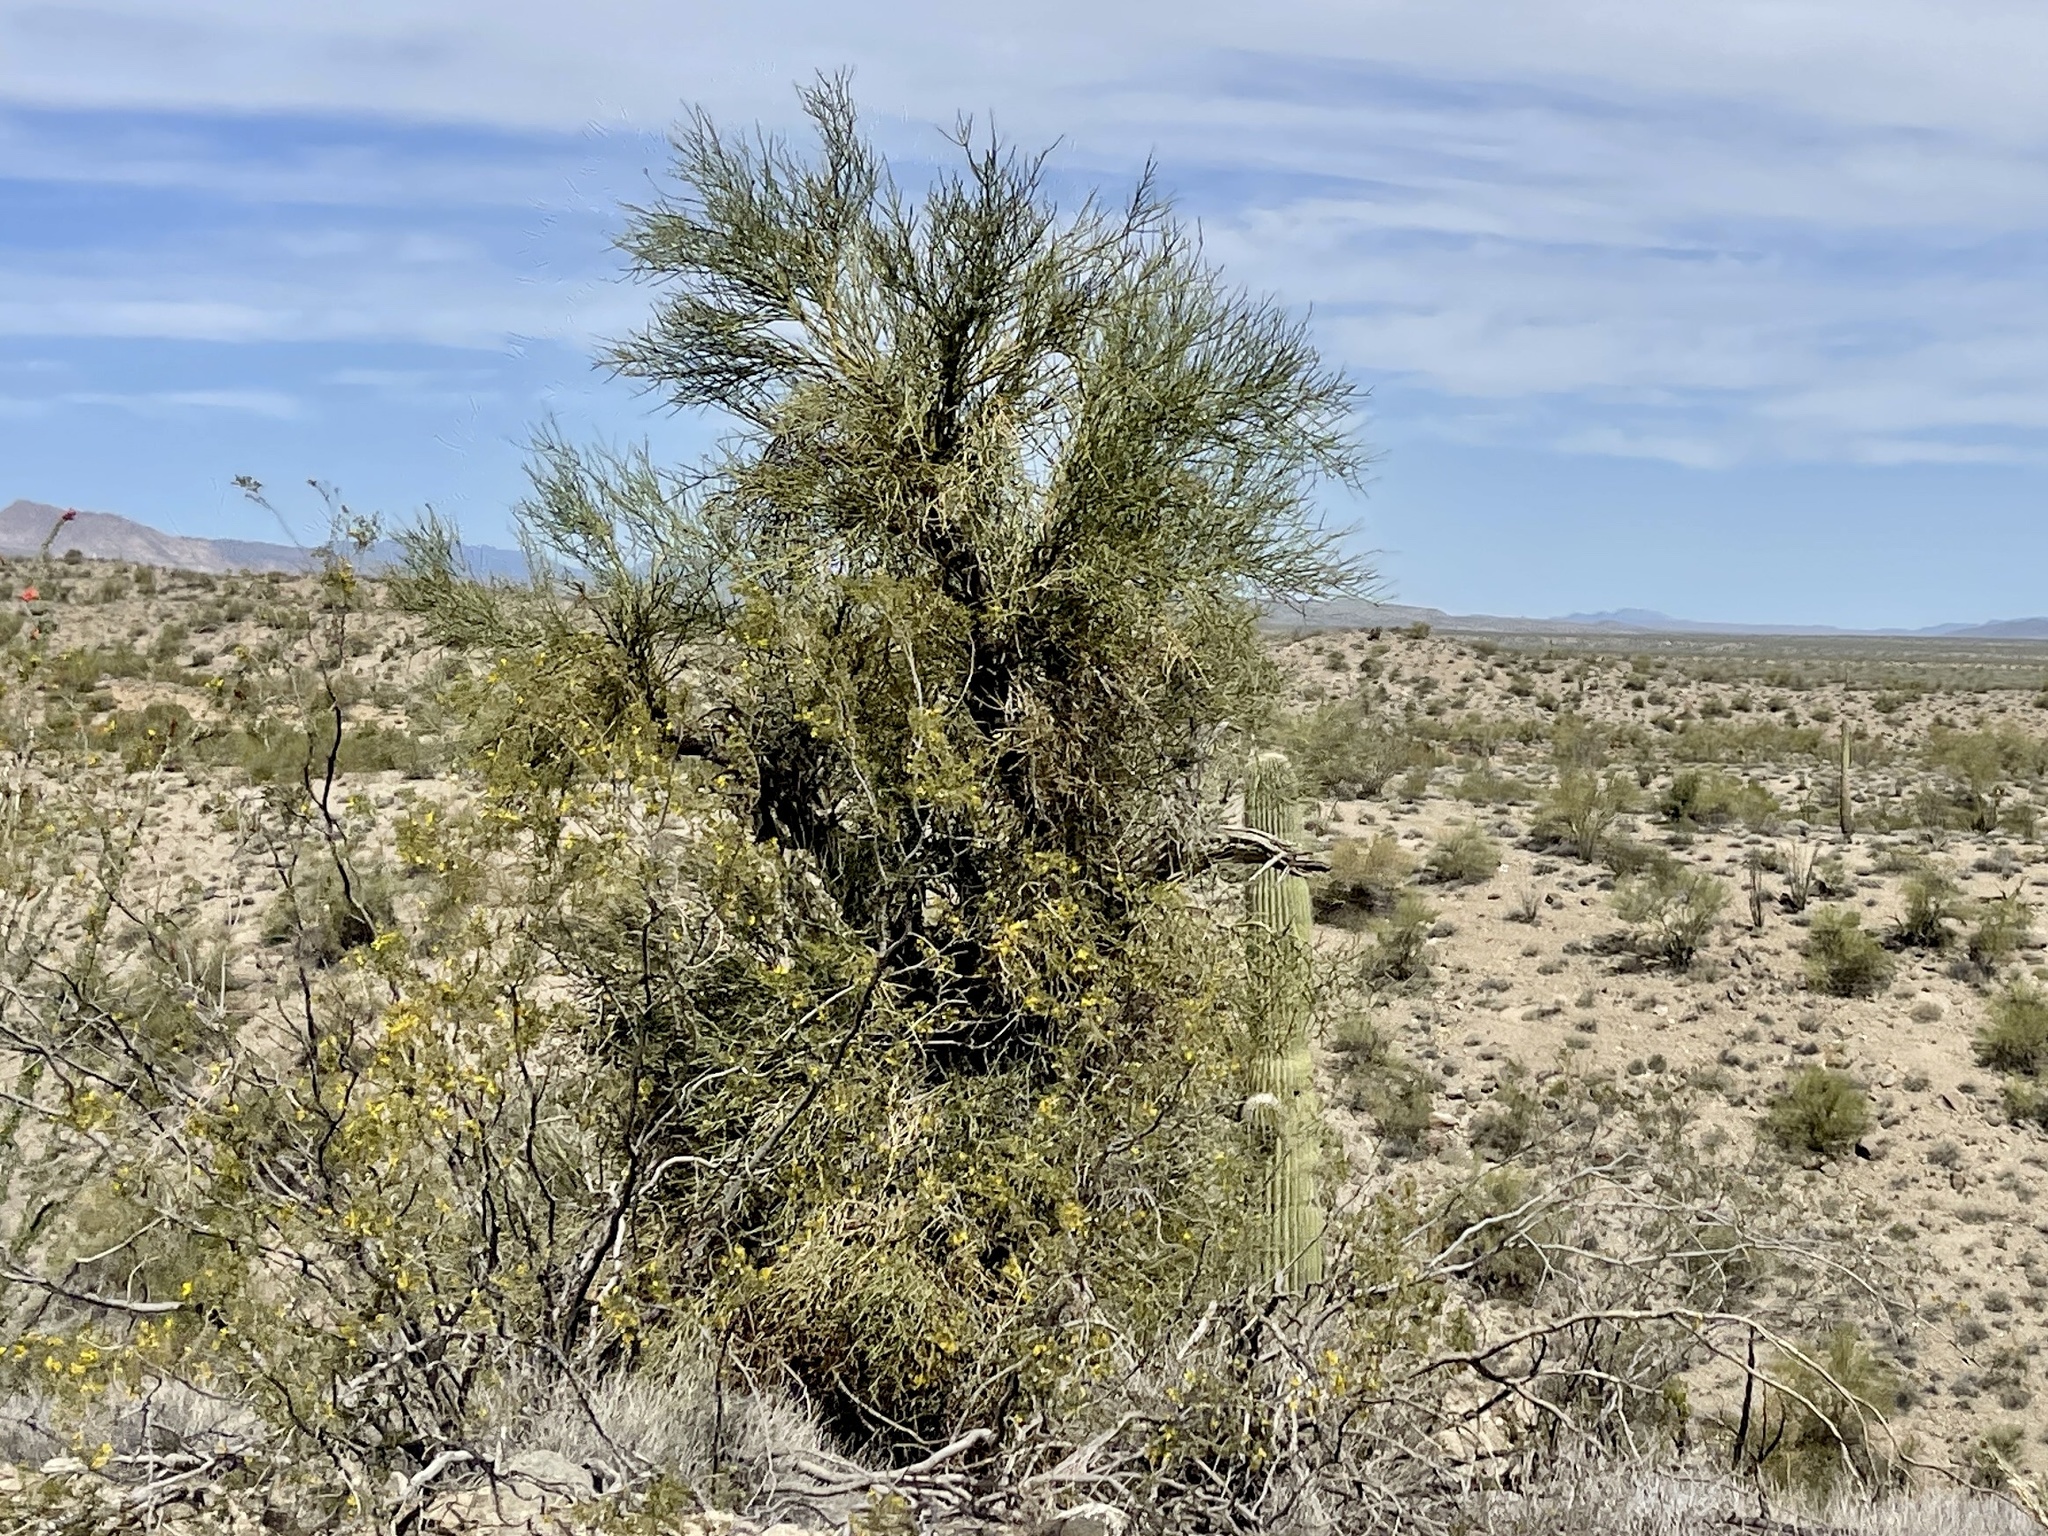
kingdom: Plantae
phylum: Tracheophyta
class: Magnoliopsida
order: Celastrales
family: Celastraceae
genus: Canotia
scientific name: Canotia holacantha
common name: Crucifixion thorns
